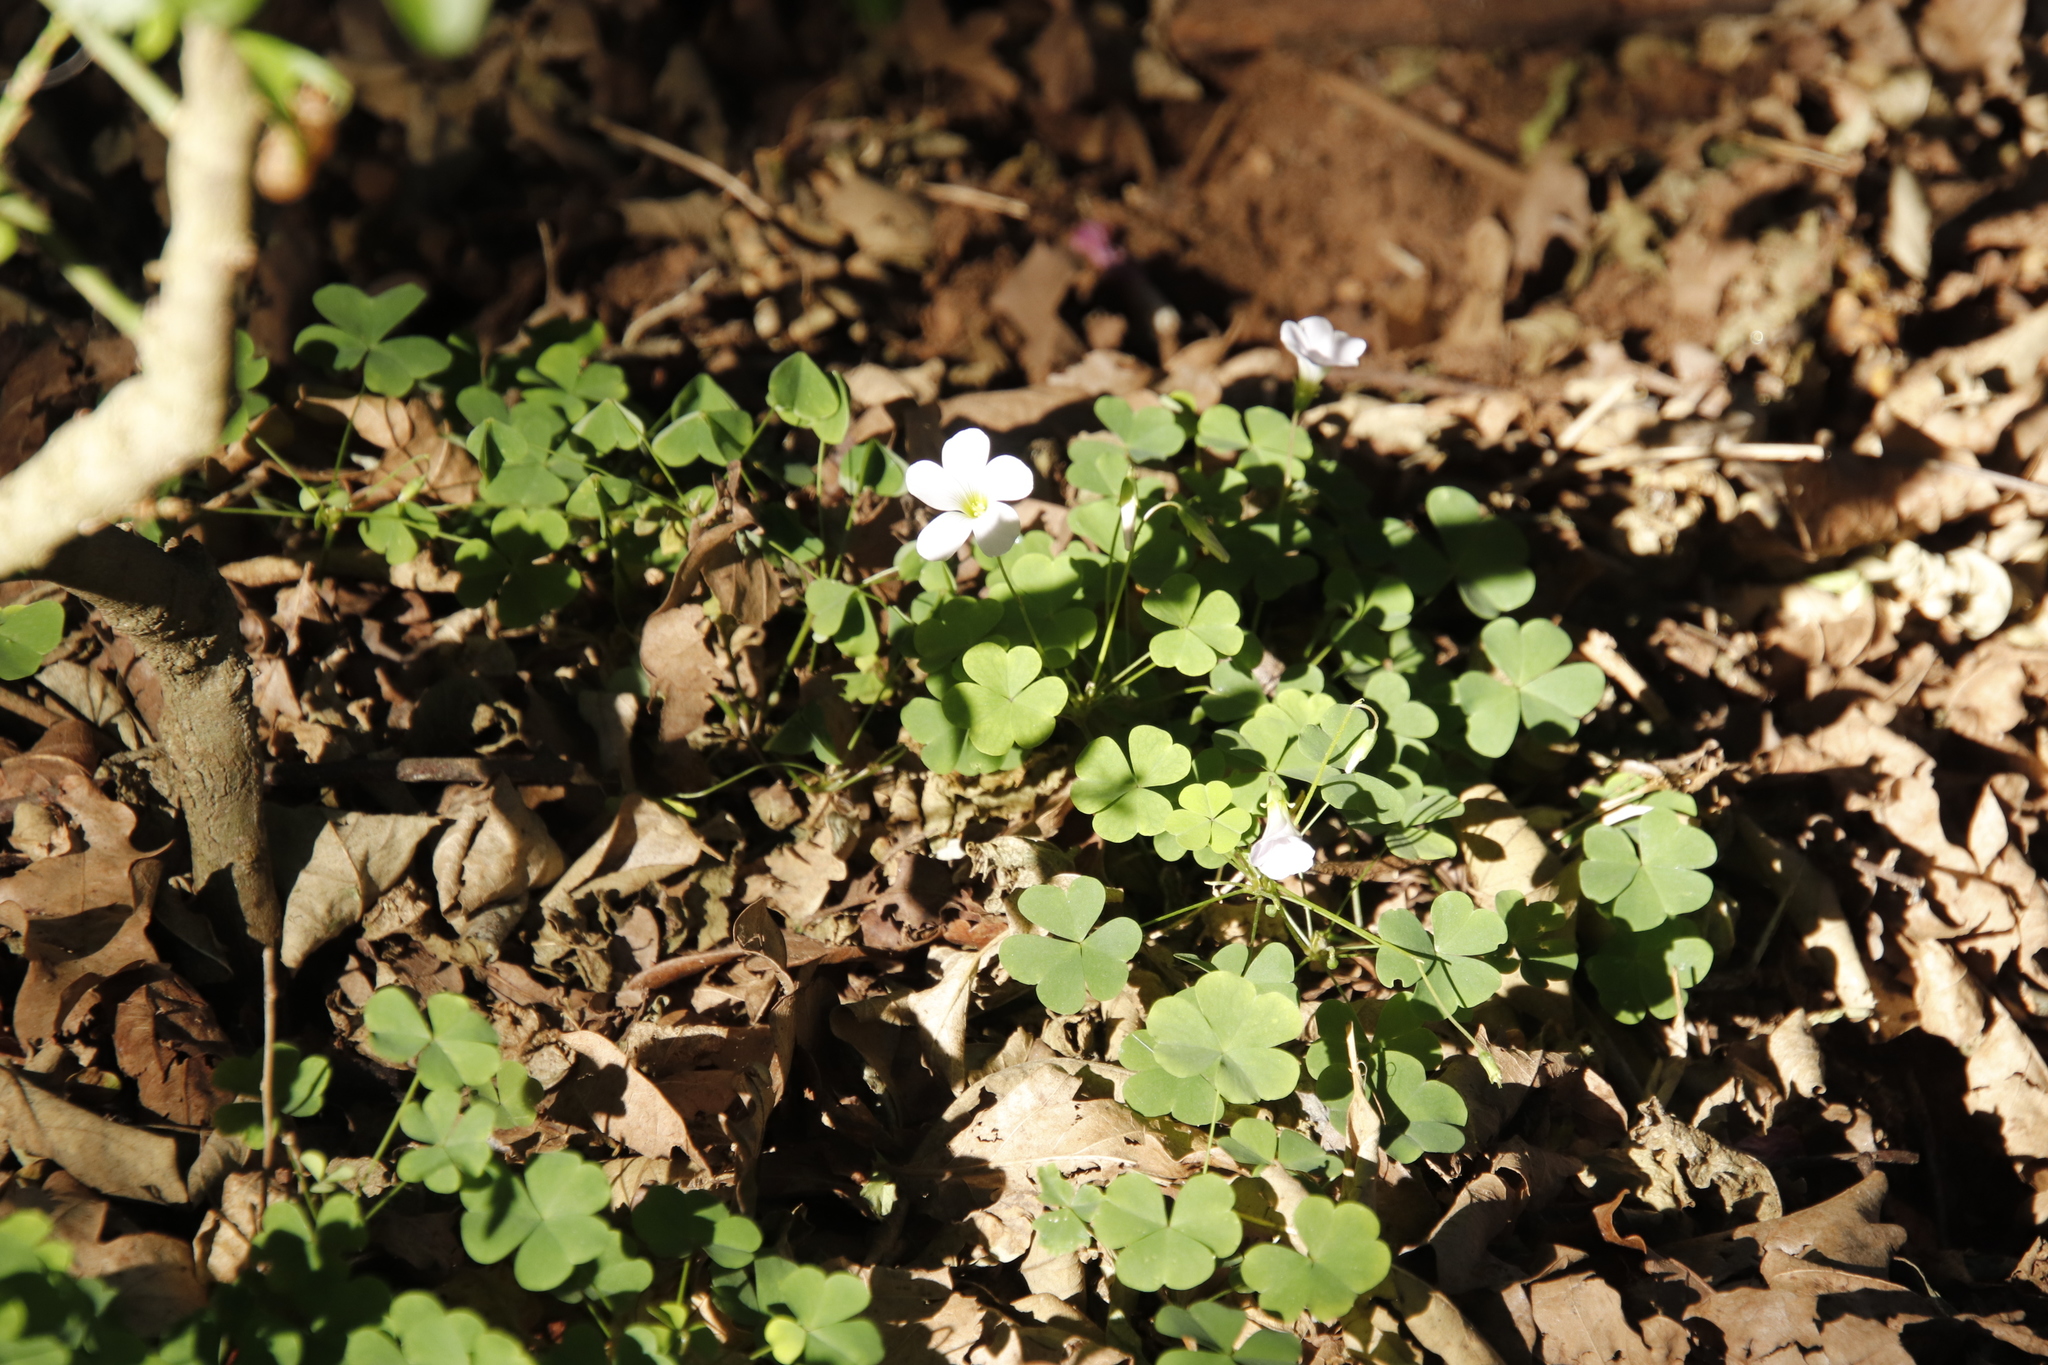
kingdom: Plantae
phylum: Tracheophyta
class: Magnoliopsida
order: Oxalidales
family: Oxalidaceae
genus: Oxalis
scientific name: Oxalis incarnata
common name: Pale pink-sorrel
